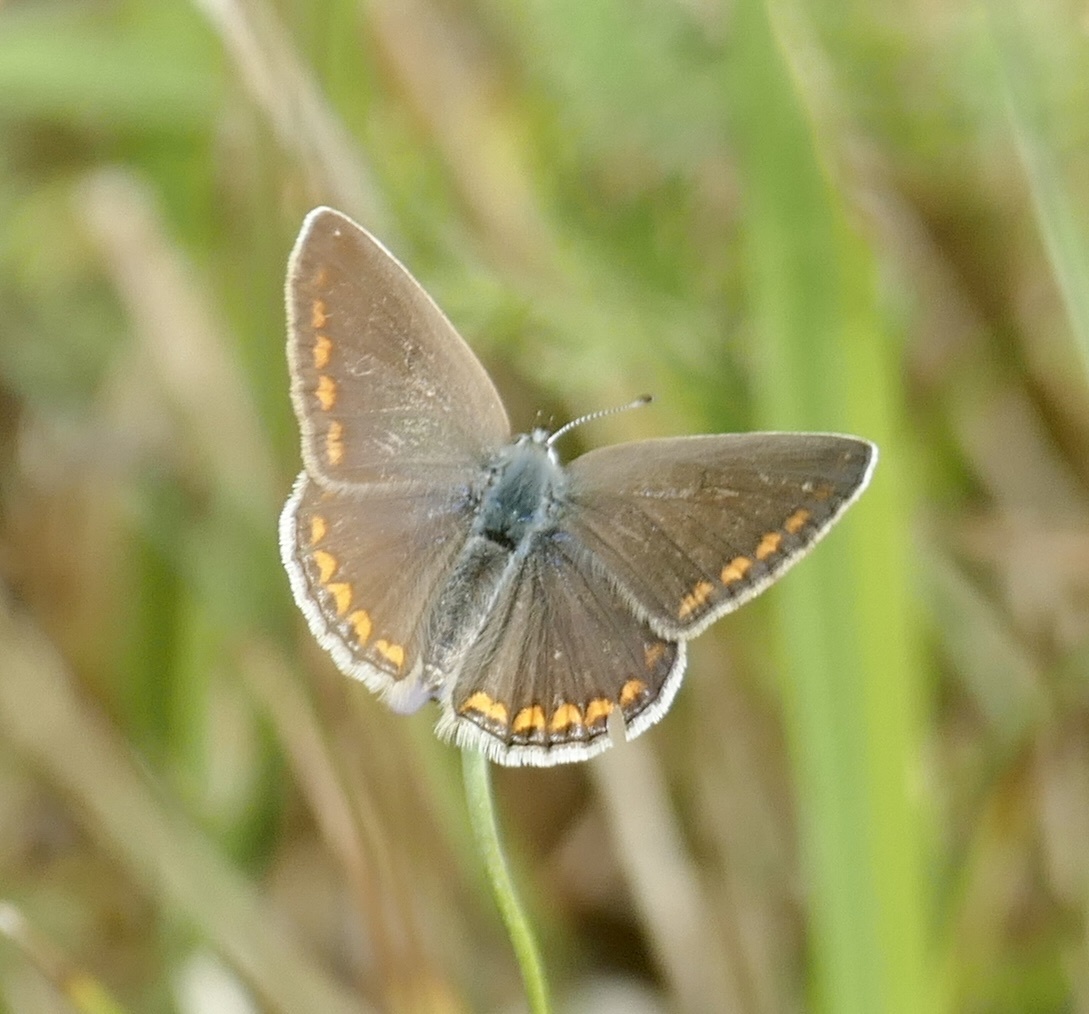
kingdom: Animalia
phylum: Arthropoda
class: Insecta
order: Lepidoptera
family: Lycaenidae
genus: Polyommatus
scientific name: Polyommatus icarus
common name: Common blue
